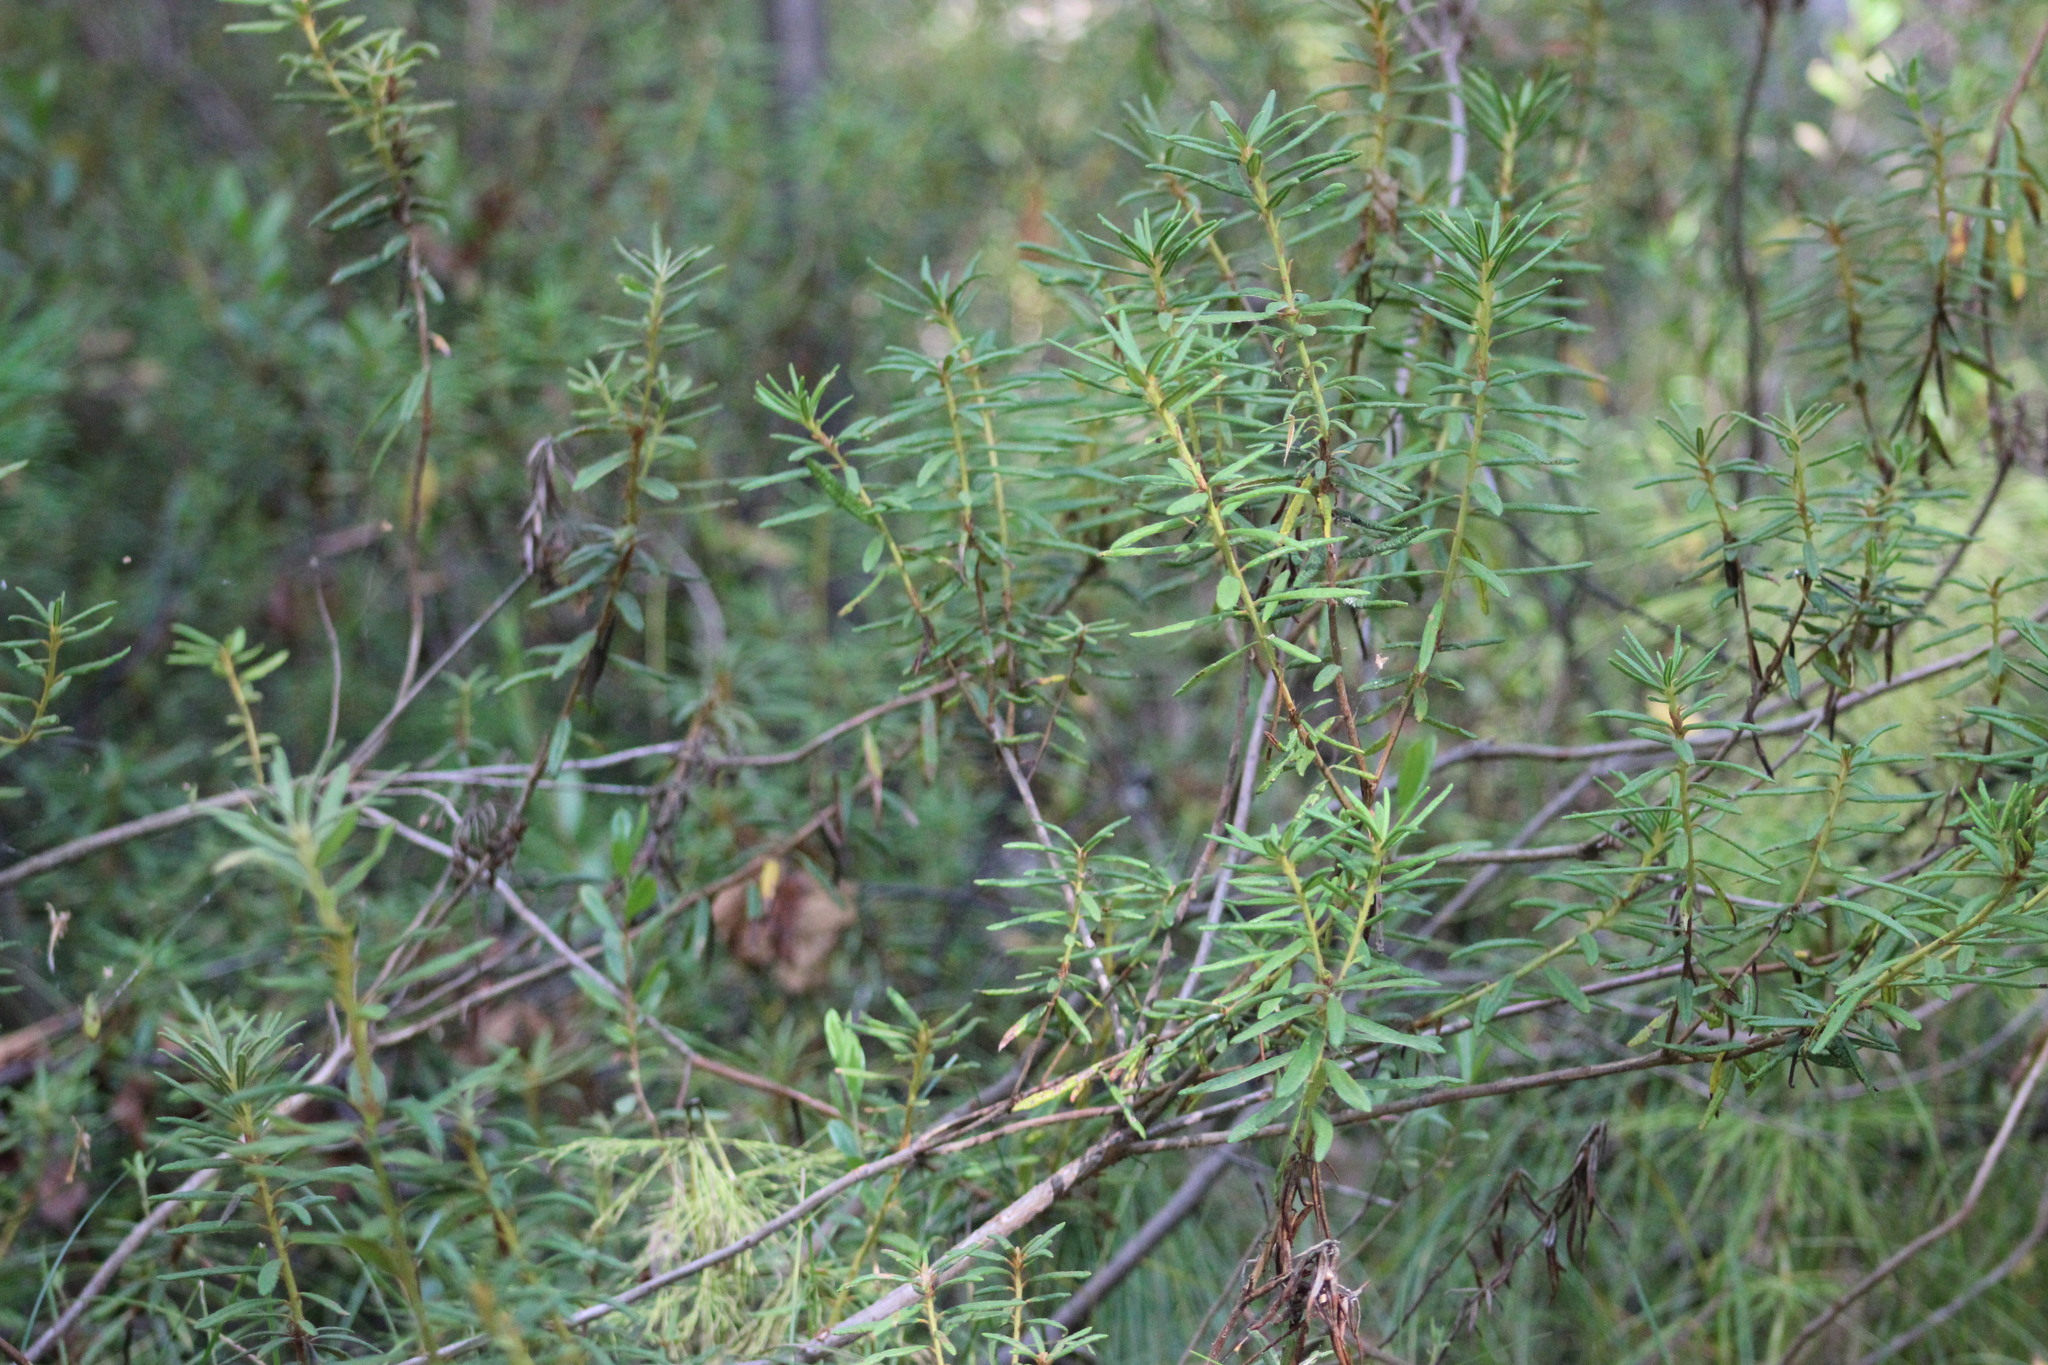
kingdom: Plantae
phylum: Tracheophyta
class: Magnoliopsida
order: Ericales
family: Ericaceae
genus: Rhododendron
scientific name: Rhododendron tomentosum
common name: Marsh labrador tea
